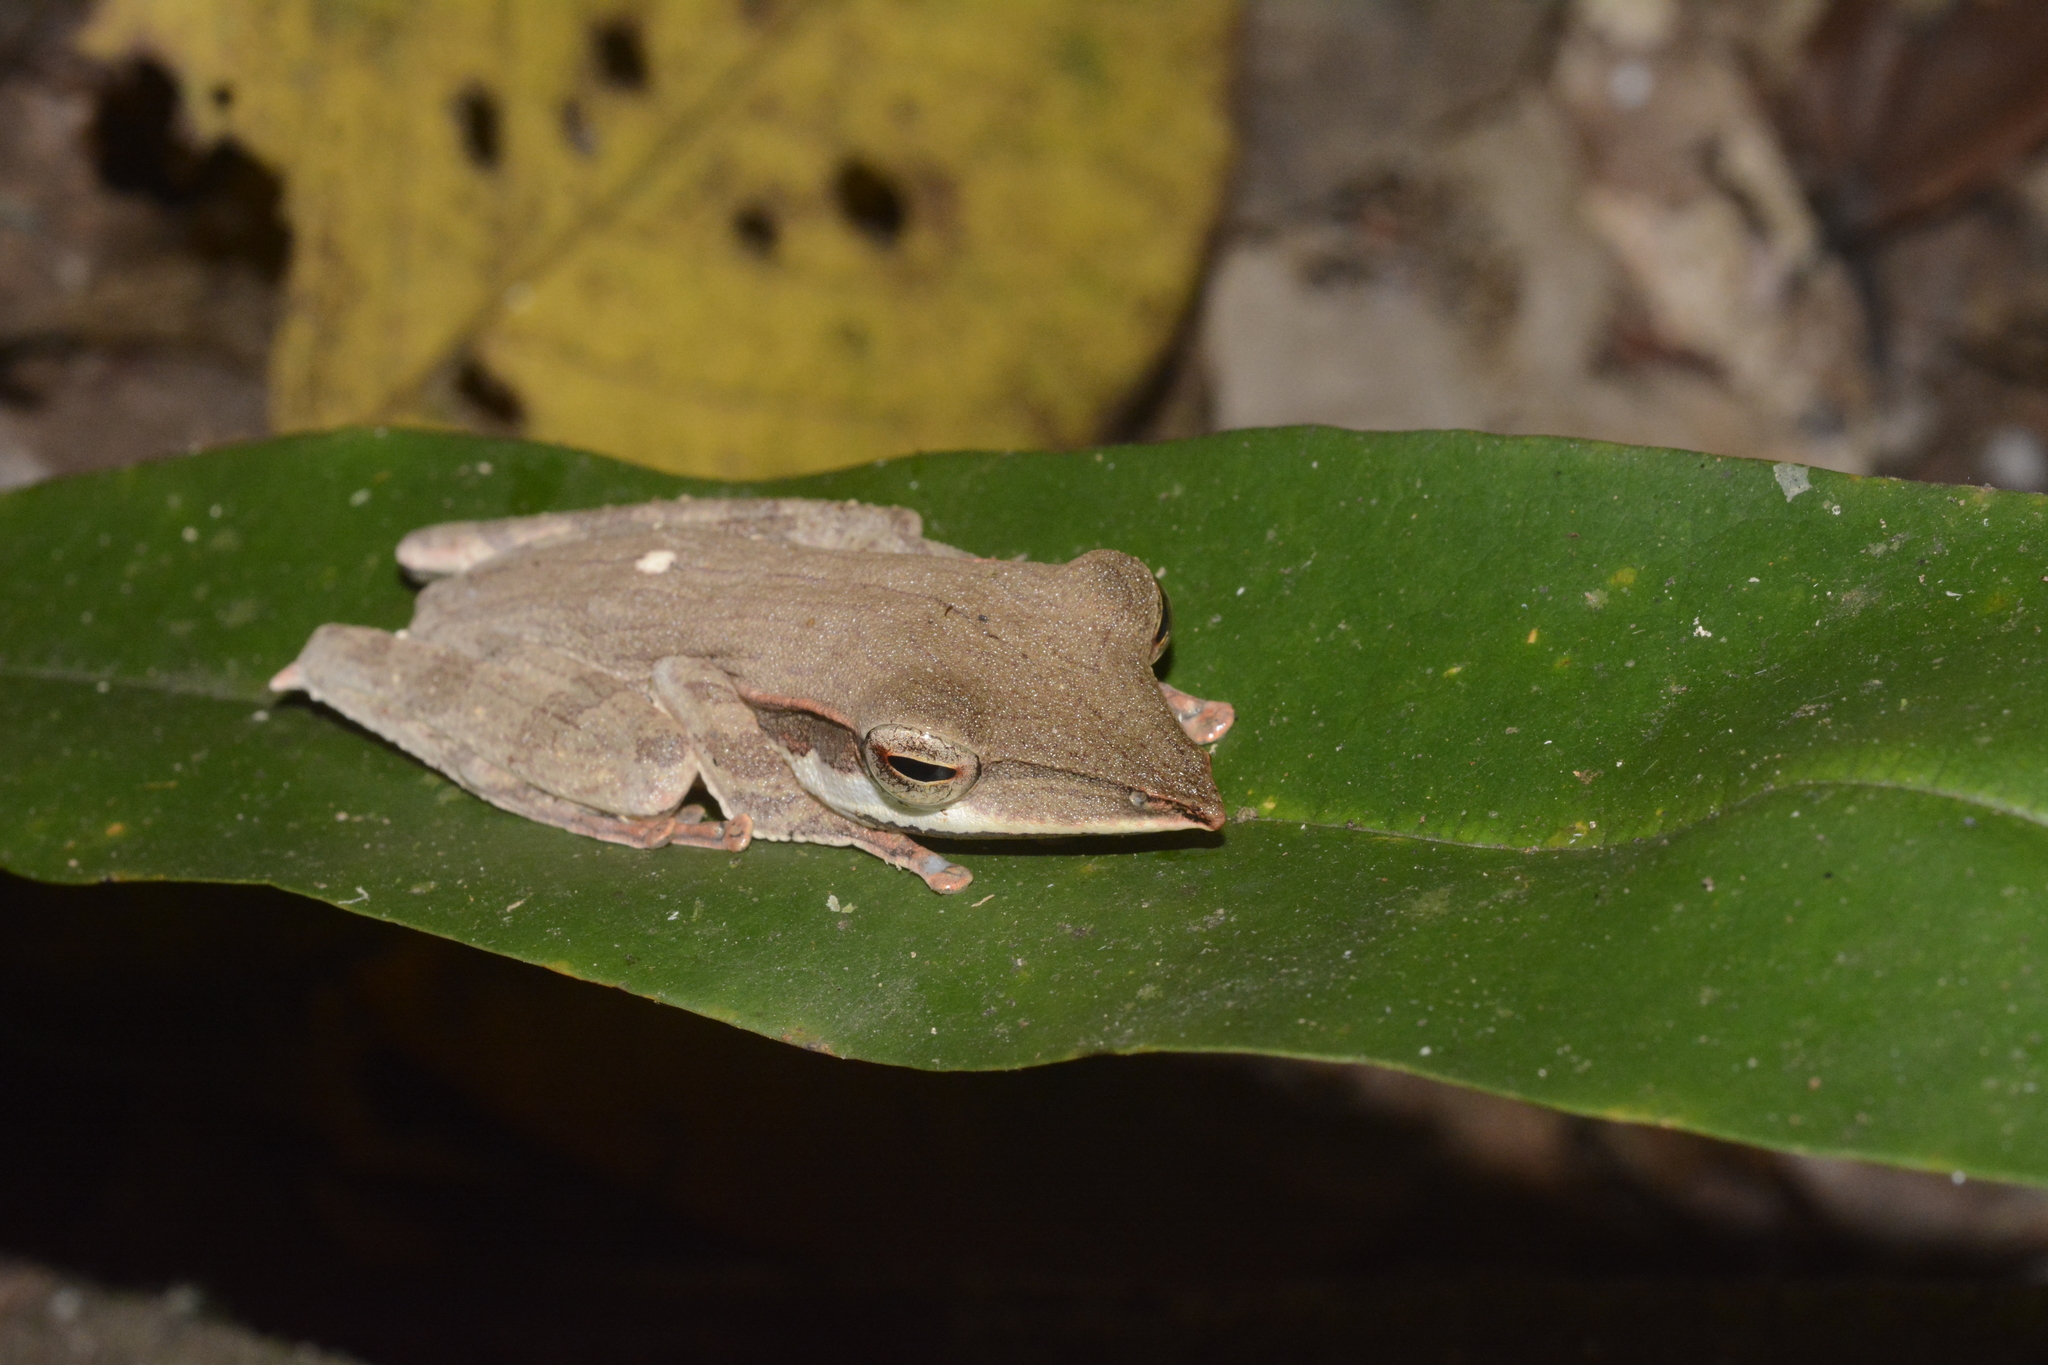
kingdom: Animalia
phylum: Chordata
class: Amphibia
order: Anura
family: Rhacophoridae
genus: Taruga
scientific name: Taruga longinasus
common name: Long-snouted tree-frog
